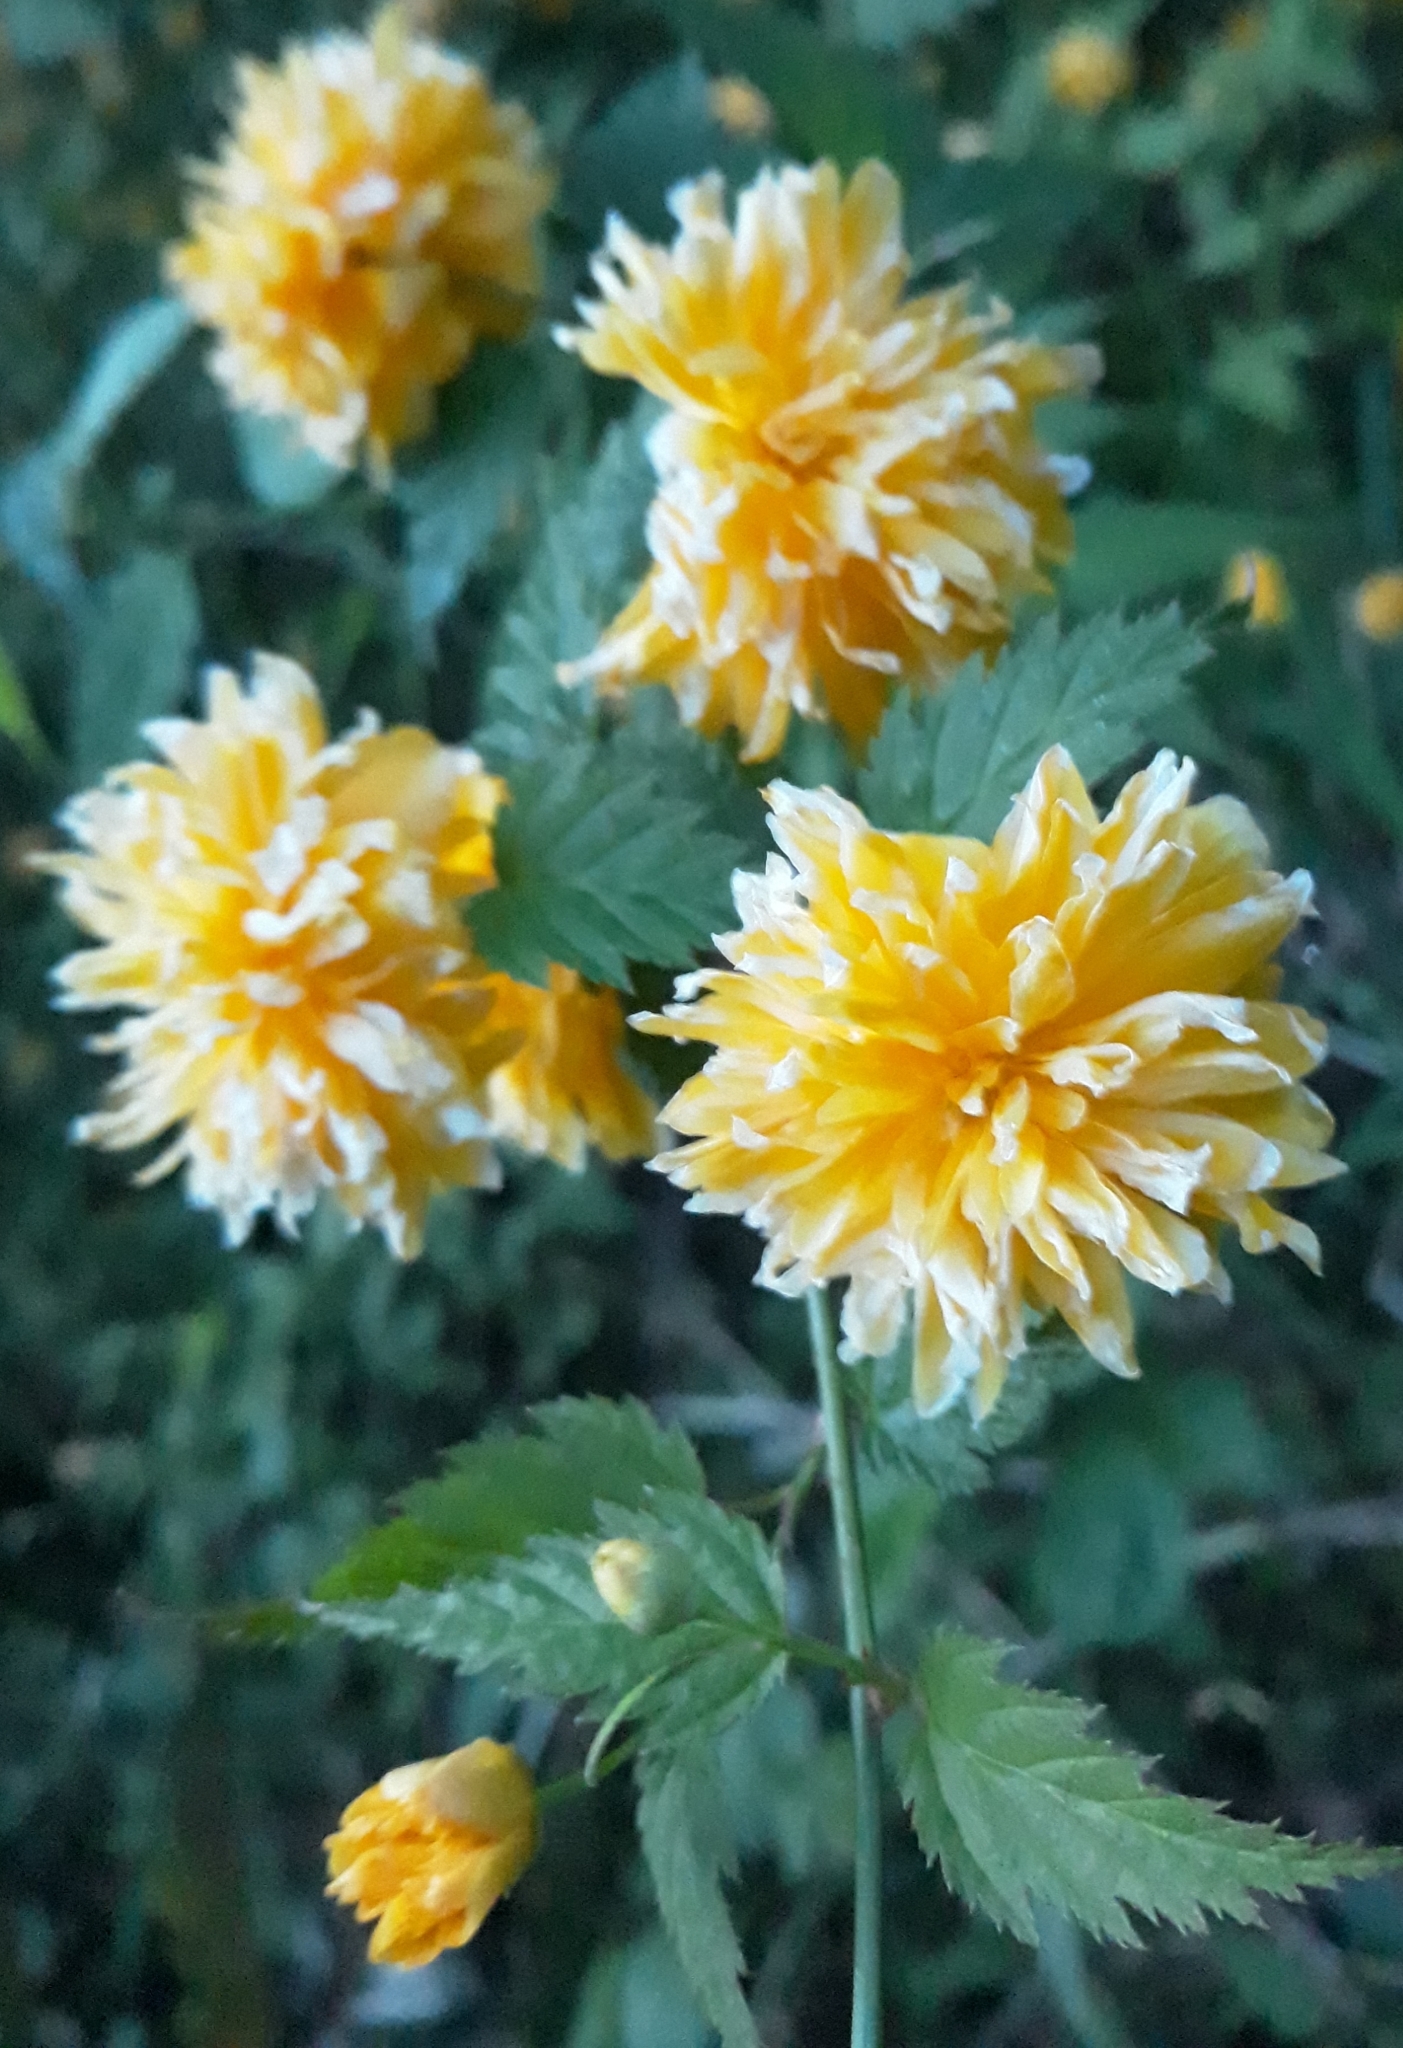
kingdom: Plantae
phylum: Tracheophyta
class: Magnoliopsida
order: Rosales
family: Rosaceae
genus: Kerria
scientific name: Kerria japonica
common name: Japanese kerria
